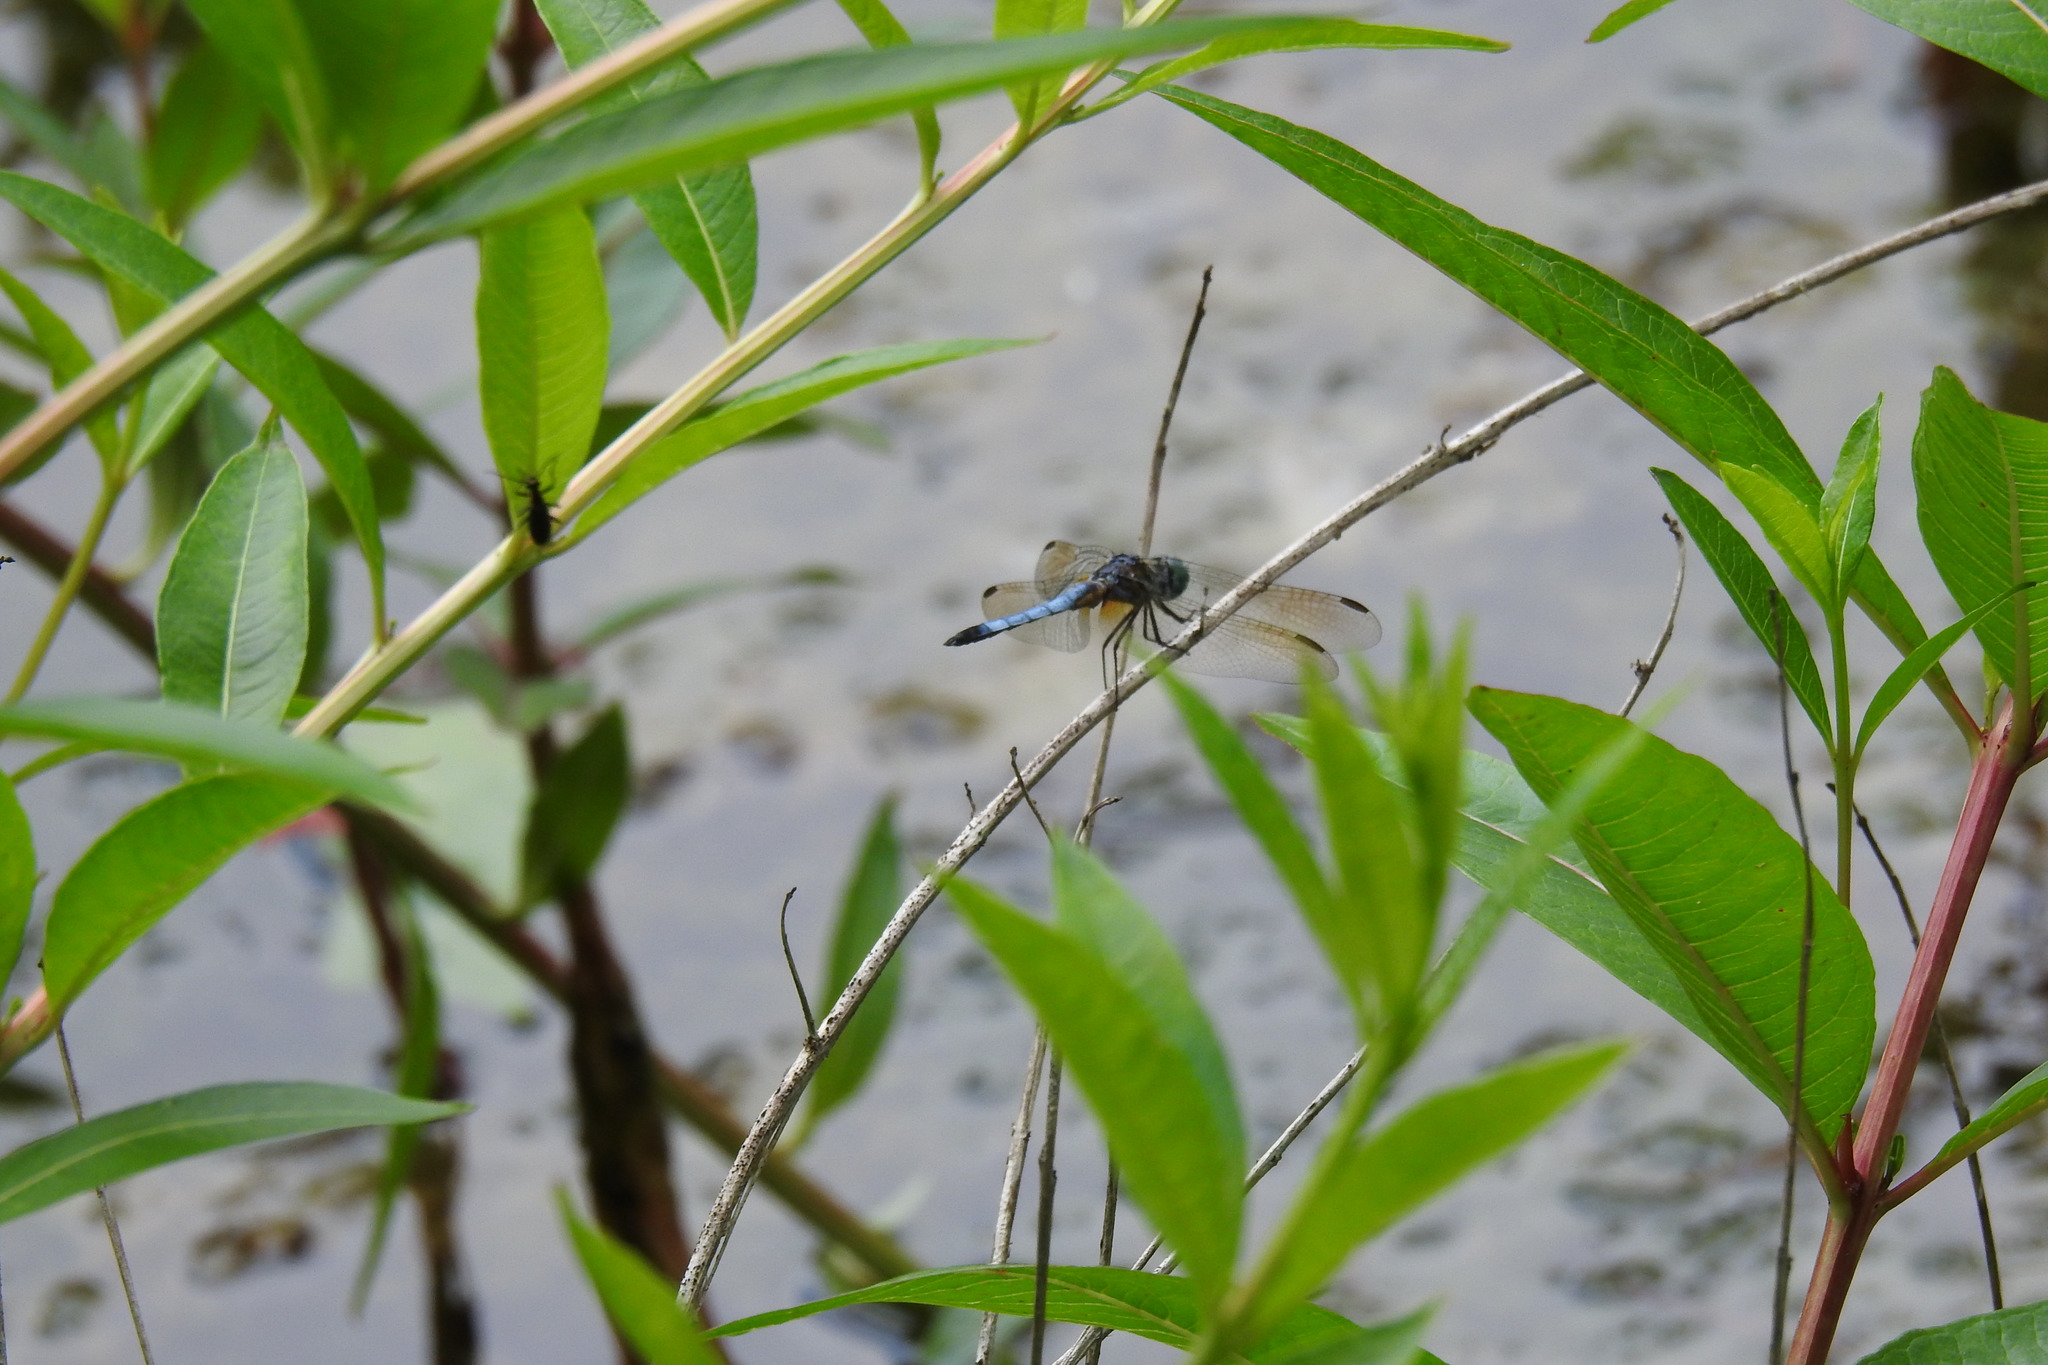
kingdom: Animalia
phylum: Arthropoda
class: Insecta
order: Odonata
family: Libellulidae
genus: Pachydiplax
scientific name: Pachydiplax longipennis
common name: Blue dasher
